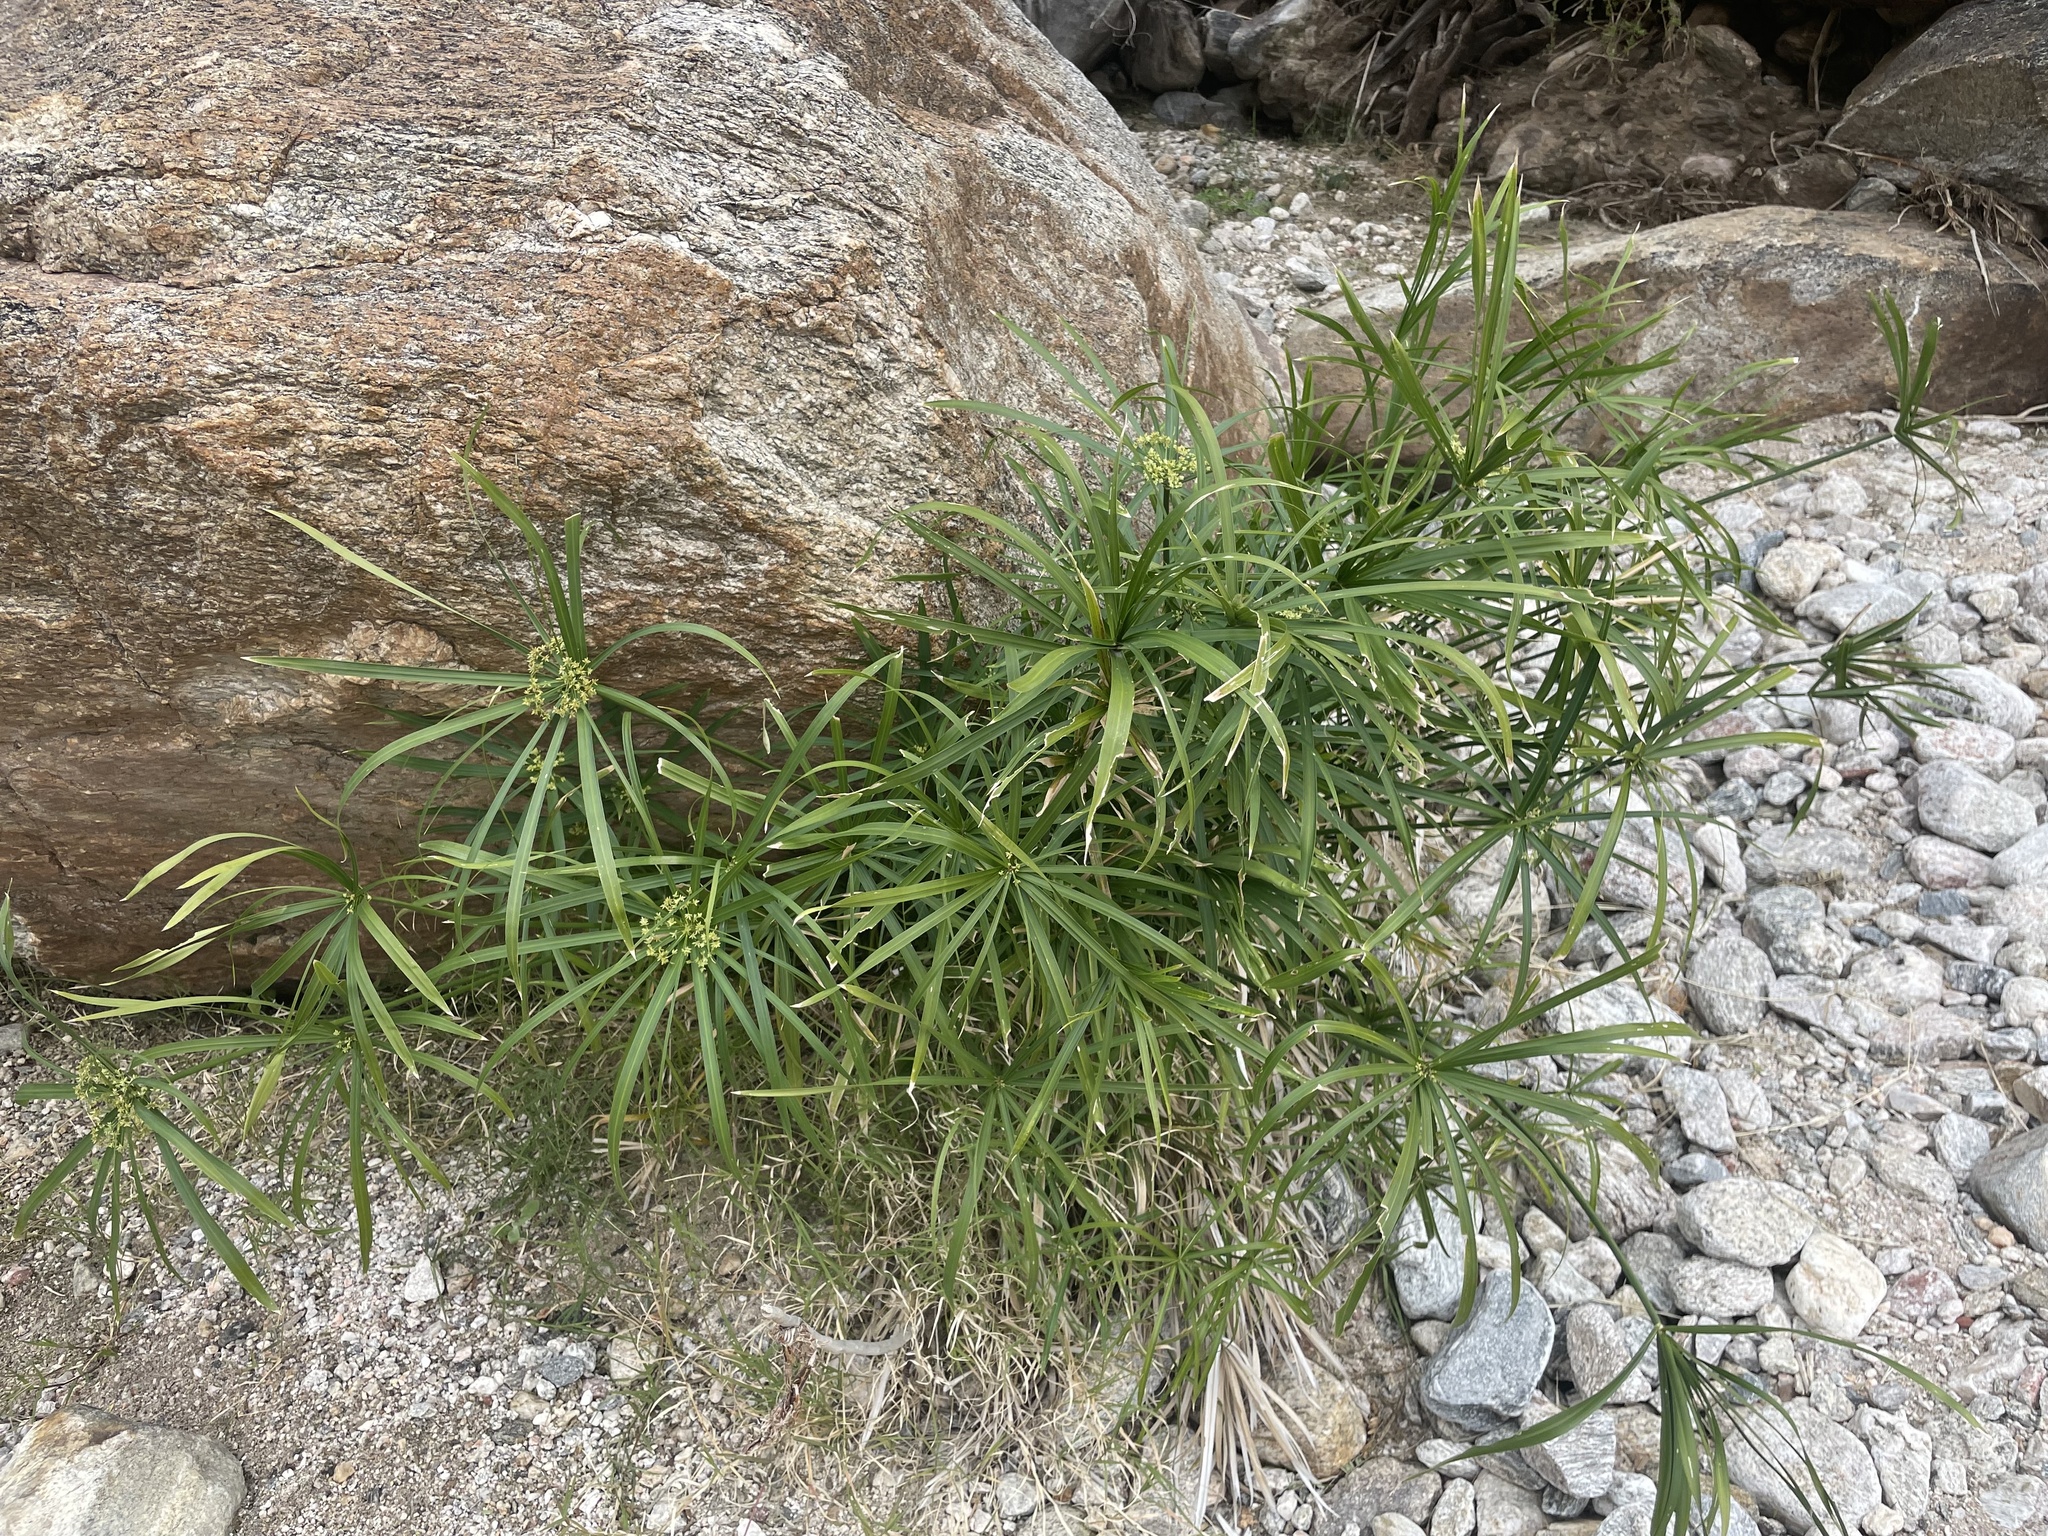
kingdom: Plantae
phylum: Tracheophyta
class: Liliopsida
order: Poales
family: Cyperaceae
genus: Cyperus
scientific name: Cyperus alternifolius
